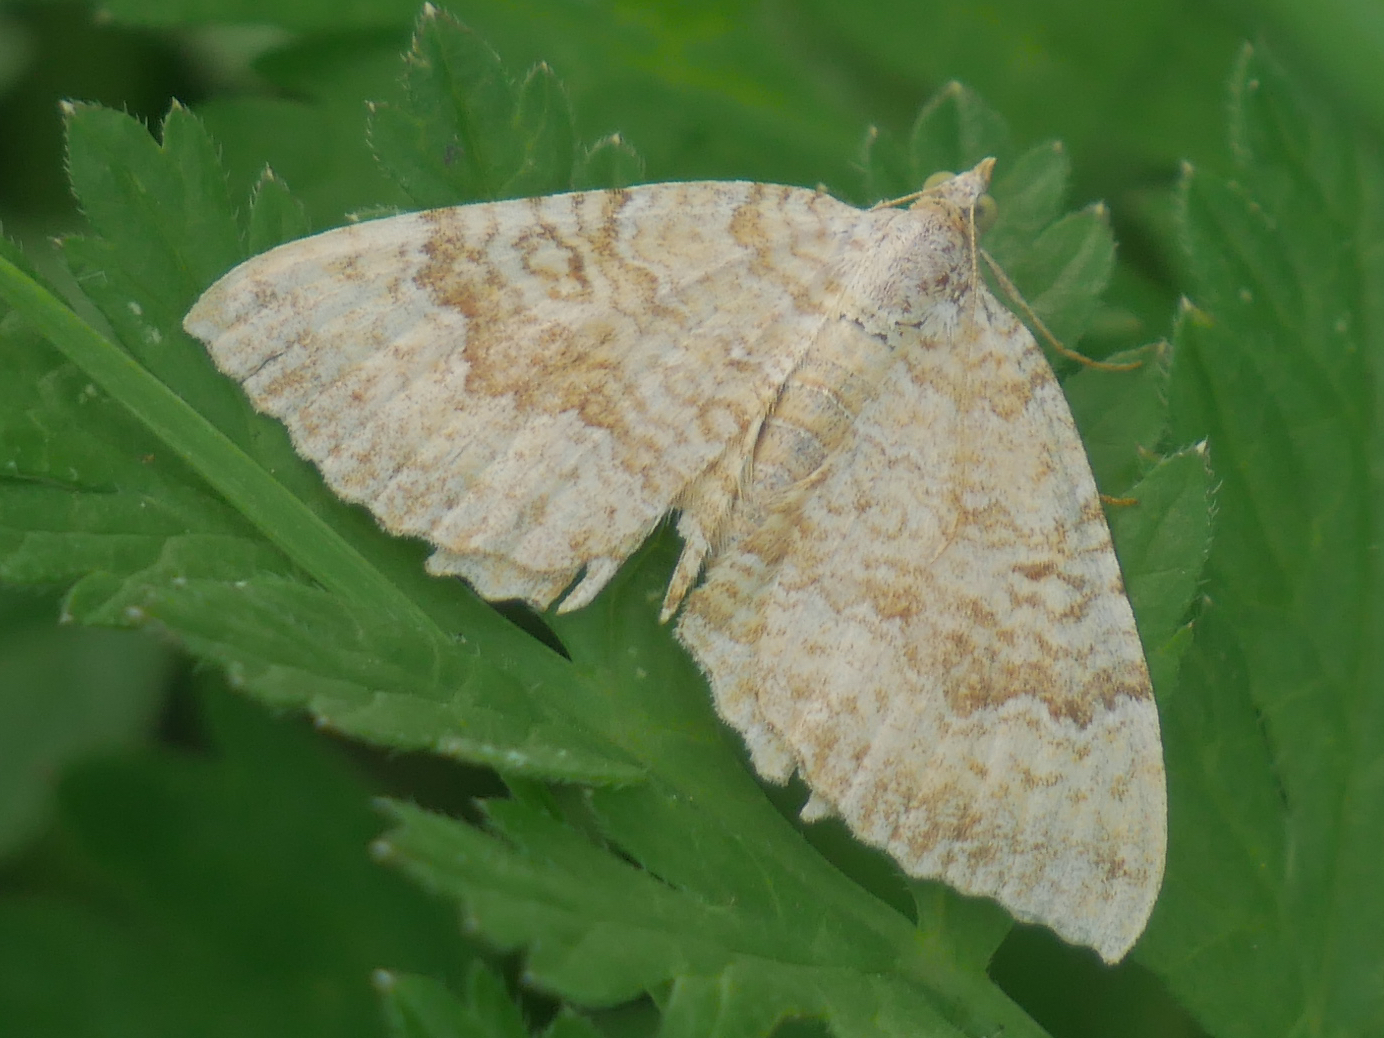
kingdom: Animalia
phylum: Arthropoda
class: Insecta
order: Lepidoptera
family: Geometridae
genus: Camptogramma
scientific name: Camptogramma bilineata
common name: Yellow shell
